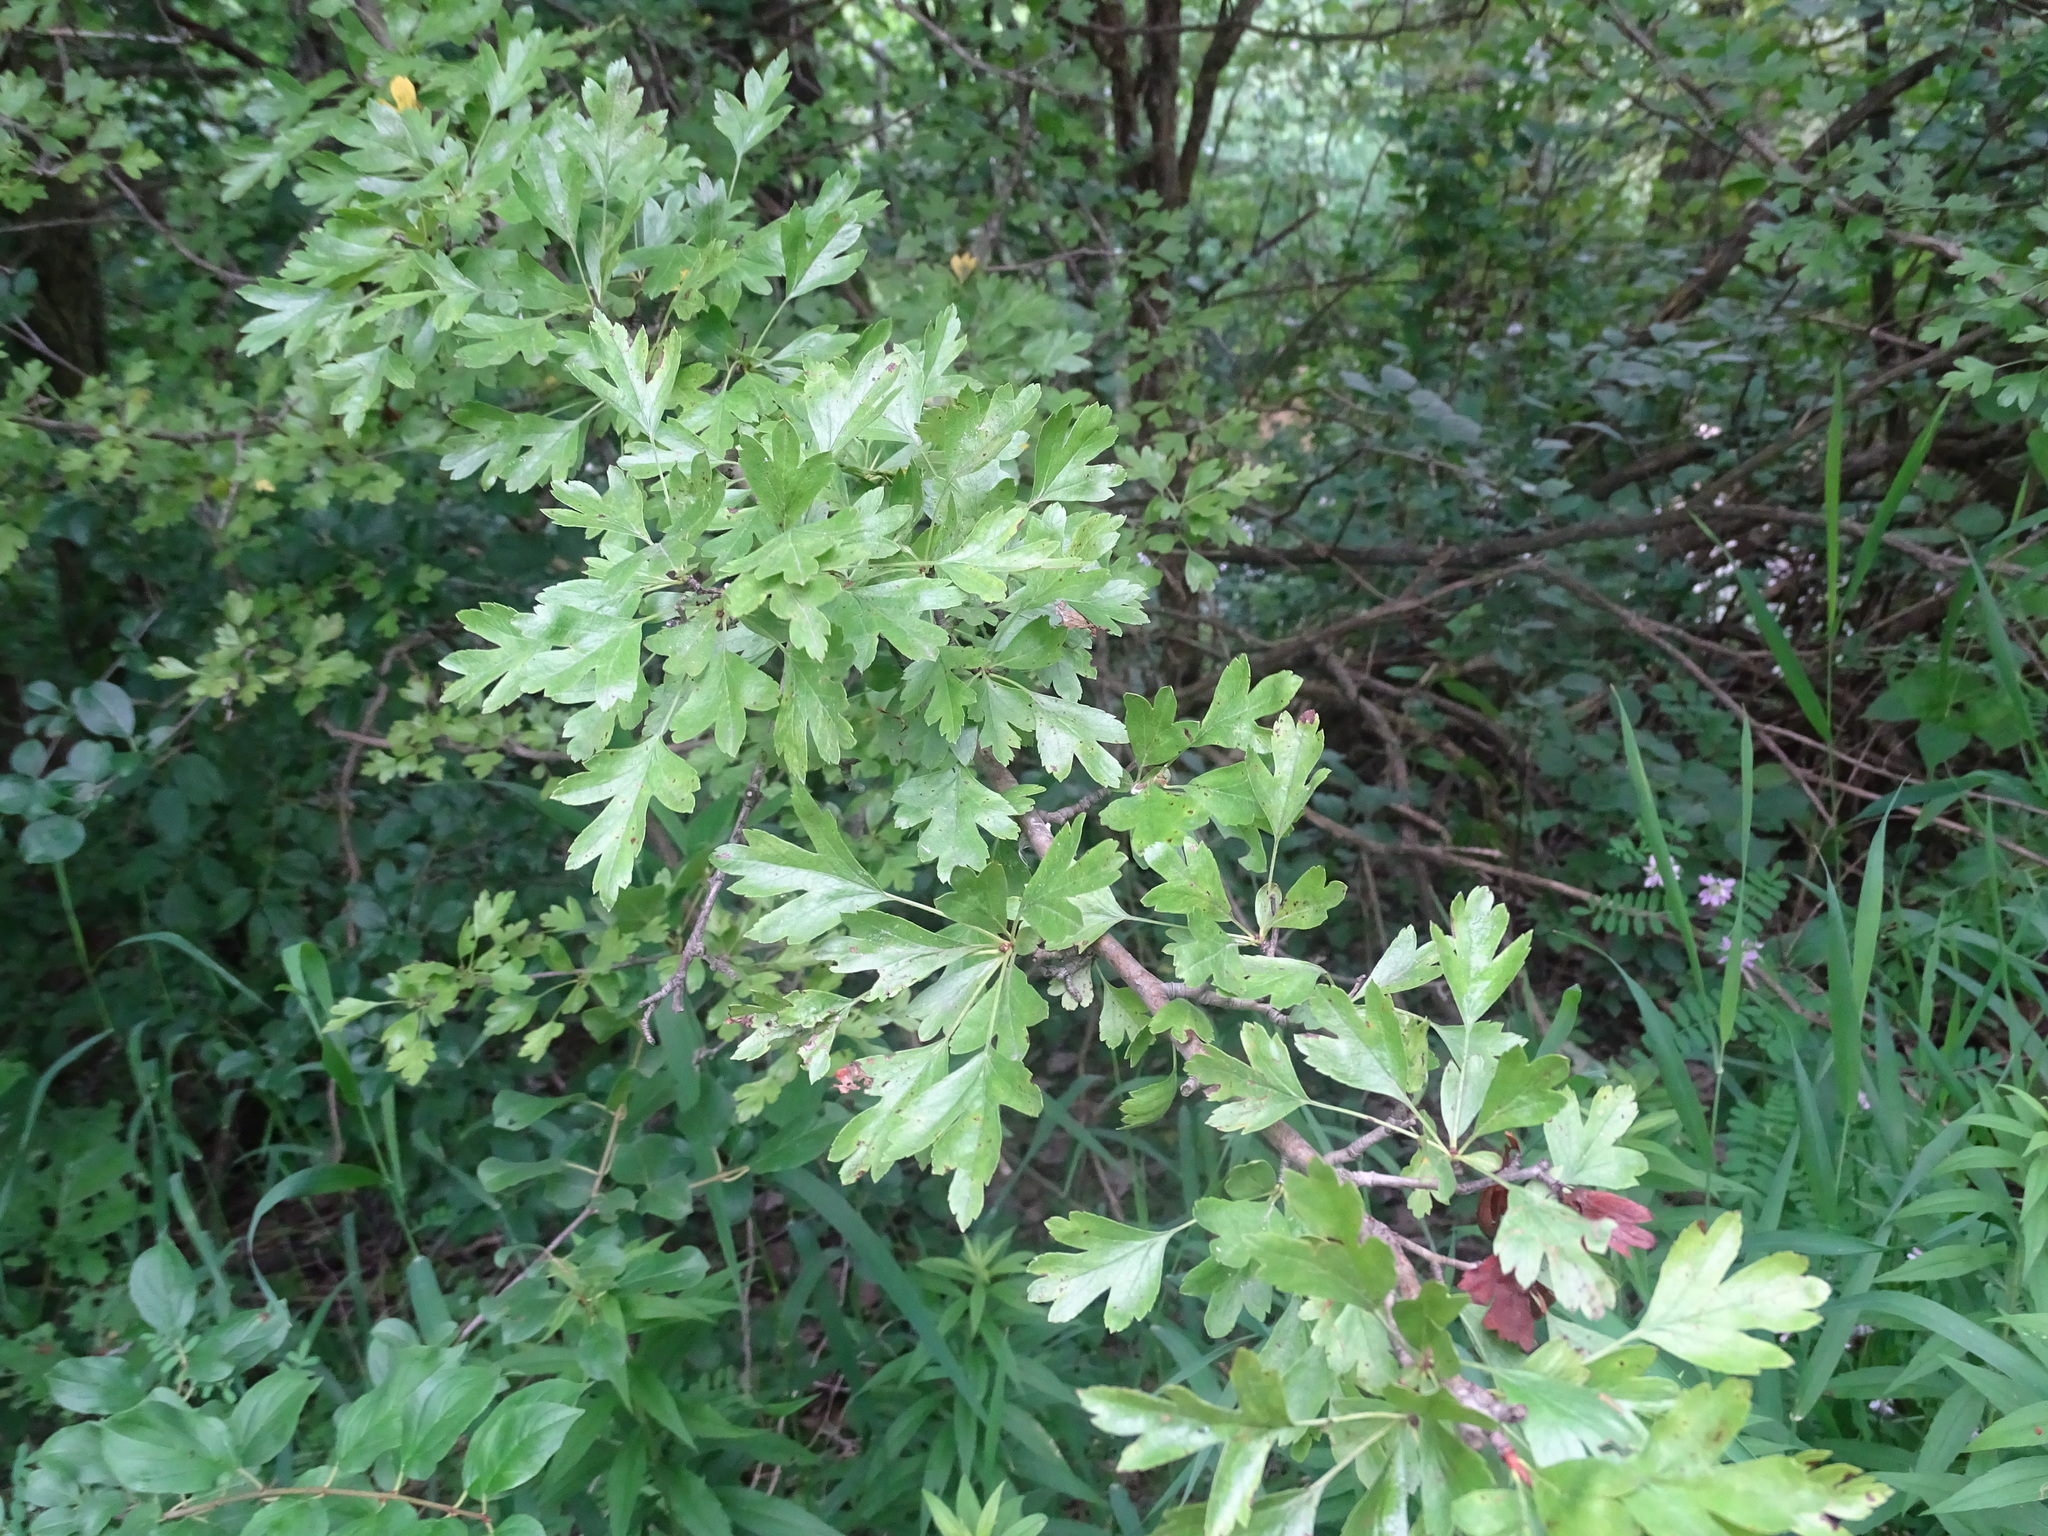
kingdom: Plantae
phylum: Tracheophyta
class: Magnoliopsida
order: Rosales
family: Rosaceae
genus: Crataegus
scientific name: Crataegus monogyna
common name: Hawthorn
